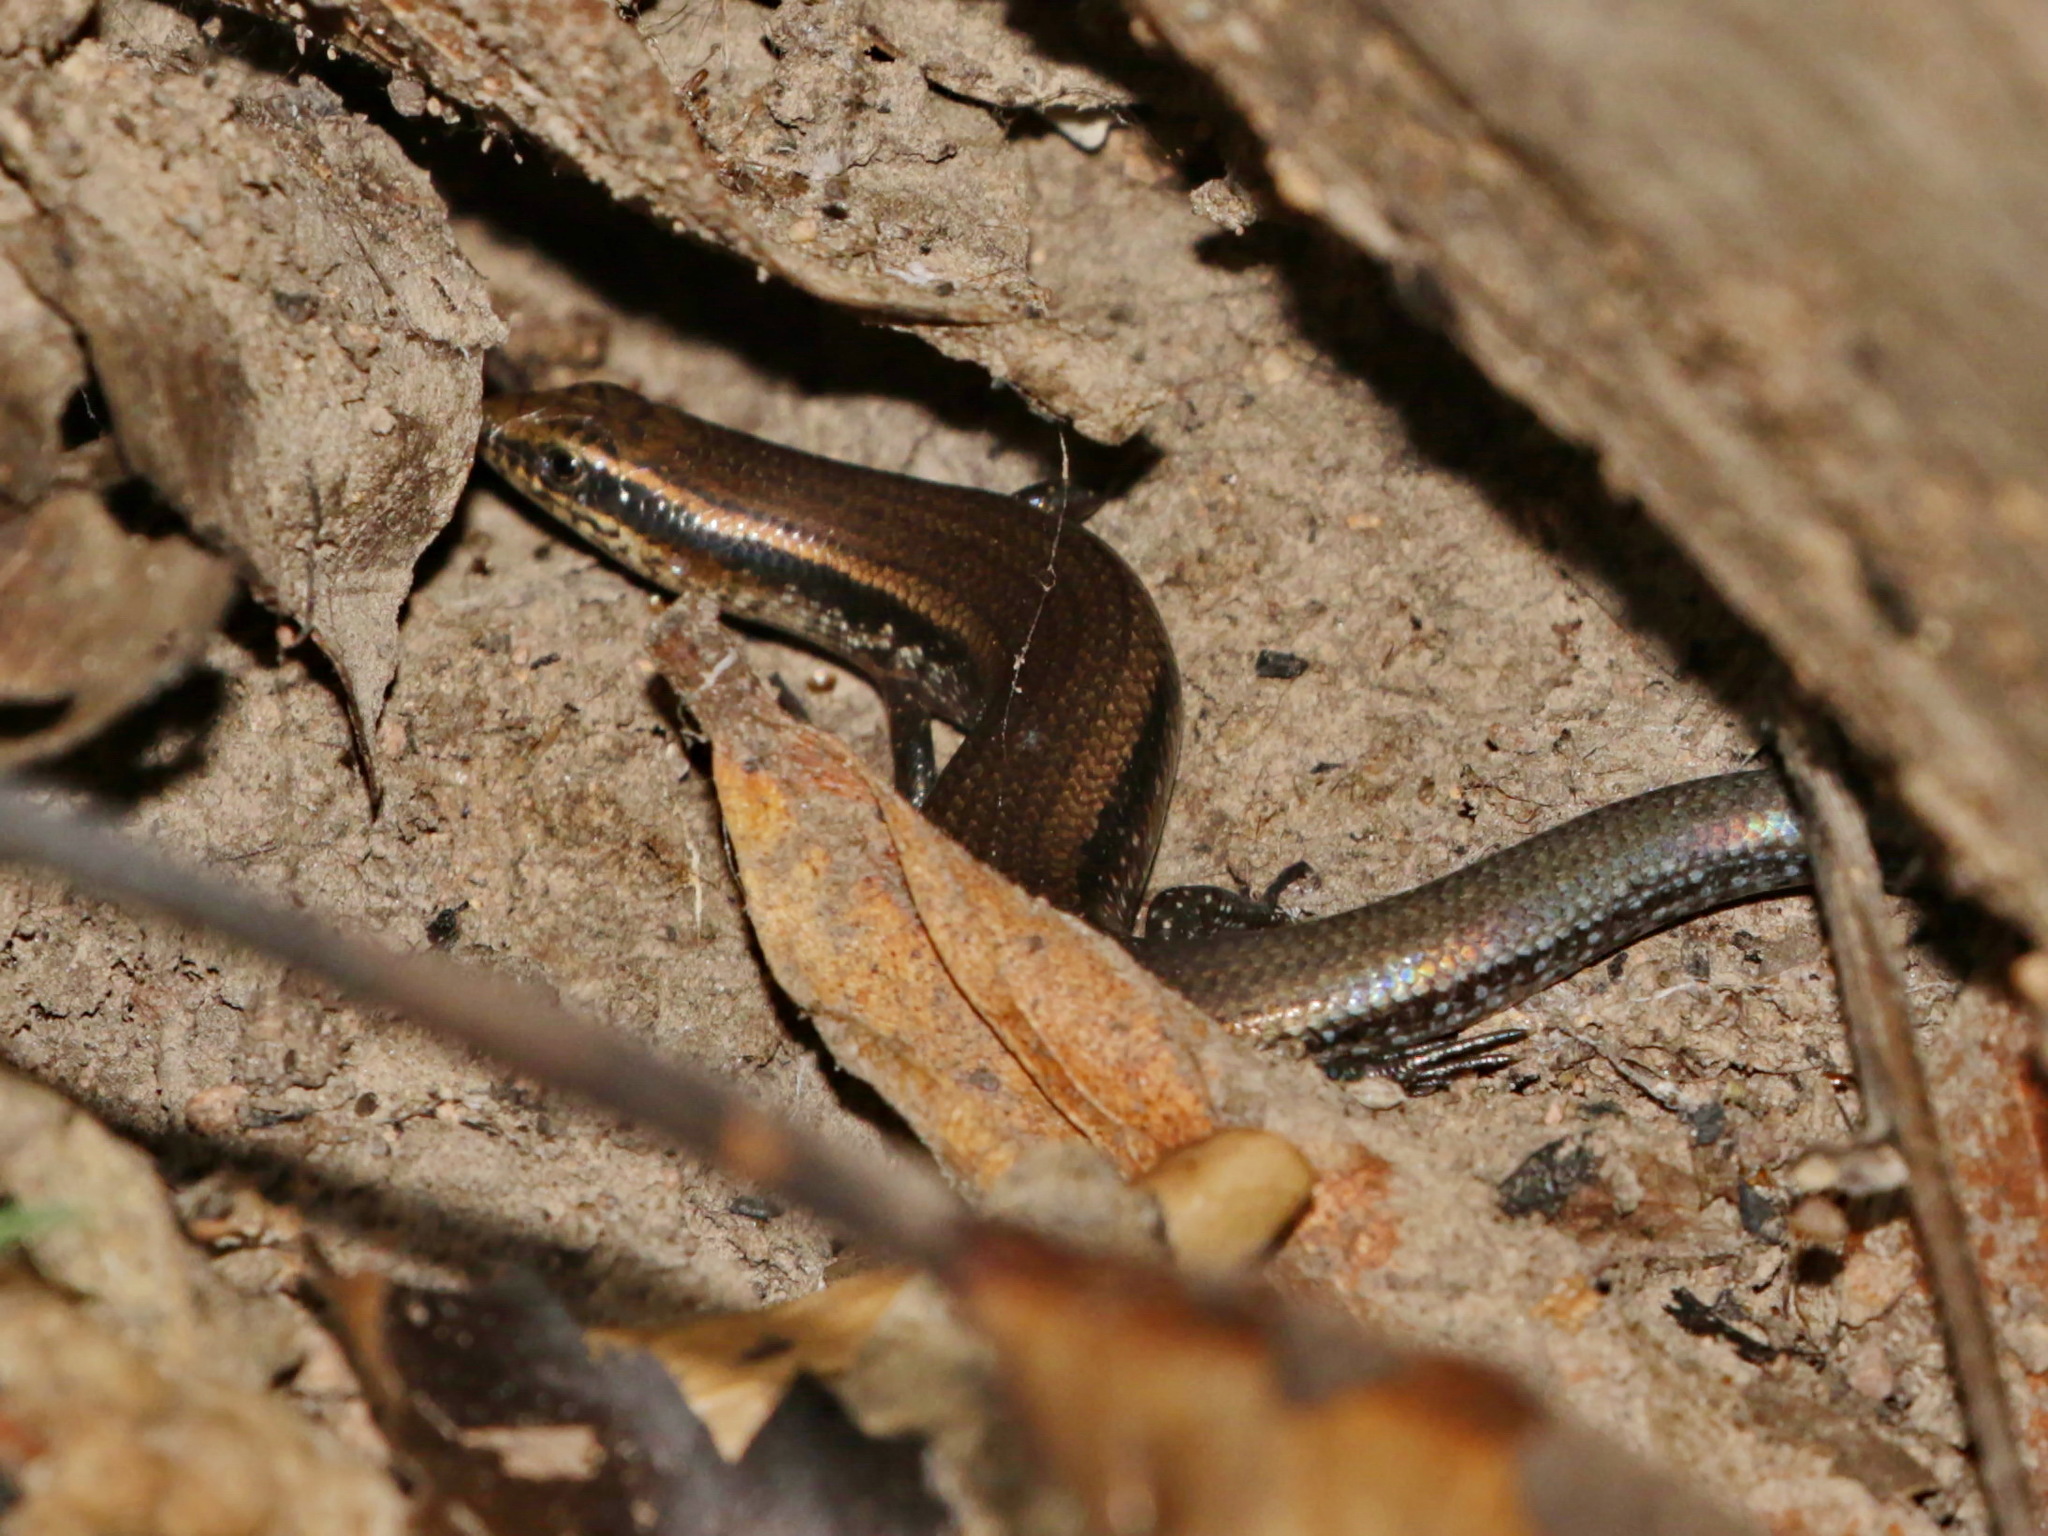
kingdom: Animalia
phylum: Chordata
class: Squamata
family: Scincidae
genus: Subdoluseps
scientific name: Subdoluseps bowringii
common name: Christmas island grass-skink
